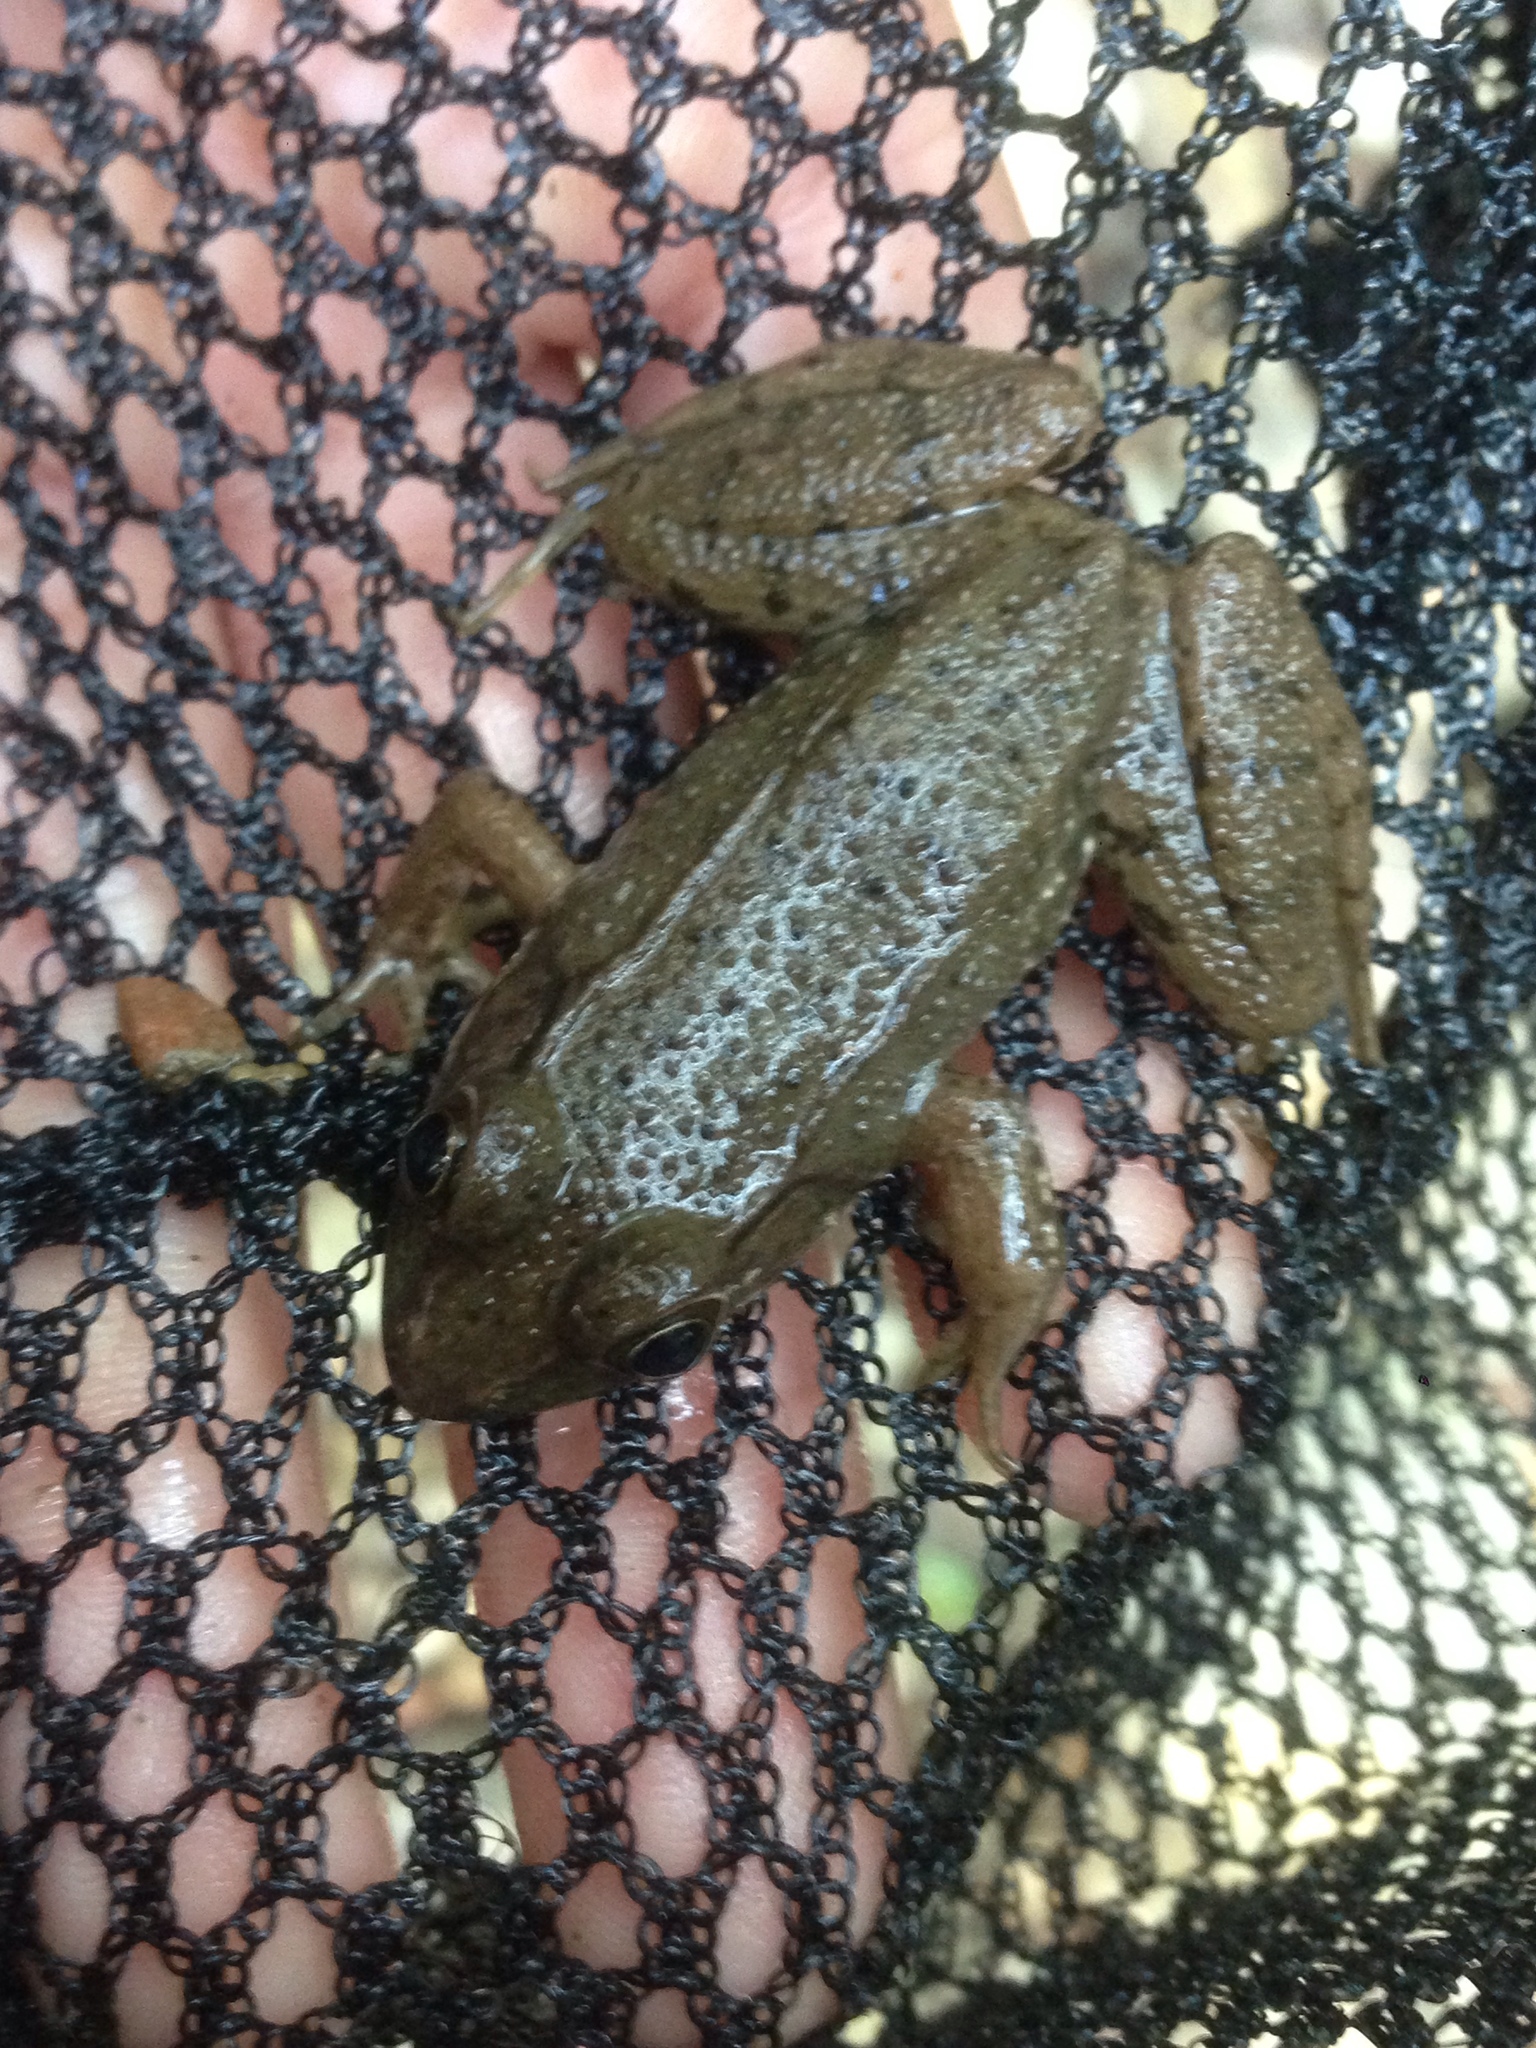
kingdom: Animalia
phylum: Chordata
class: Amphibia
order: Anura
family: Ranidae
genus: Lithobates
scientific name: Lithobates clamitans
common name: Green frog
